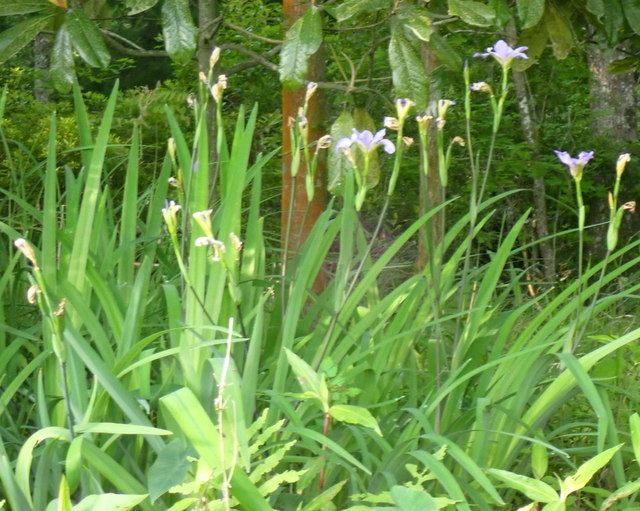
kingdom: Plantae
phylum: Tracheophyta
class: Liliopsida
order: Asparagales
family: Iridaceae
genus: Iris
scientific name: Iris virginica
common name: Southern blue flag
